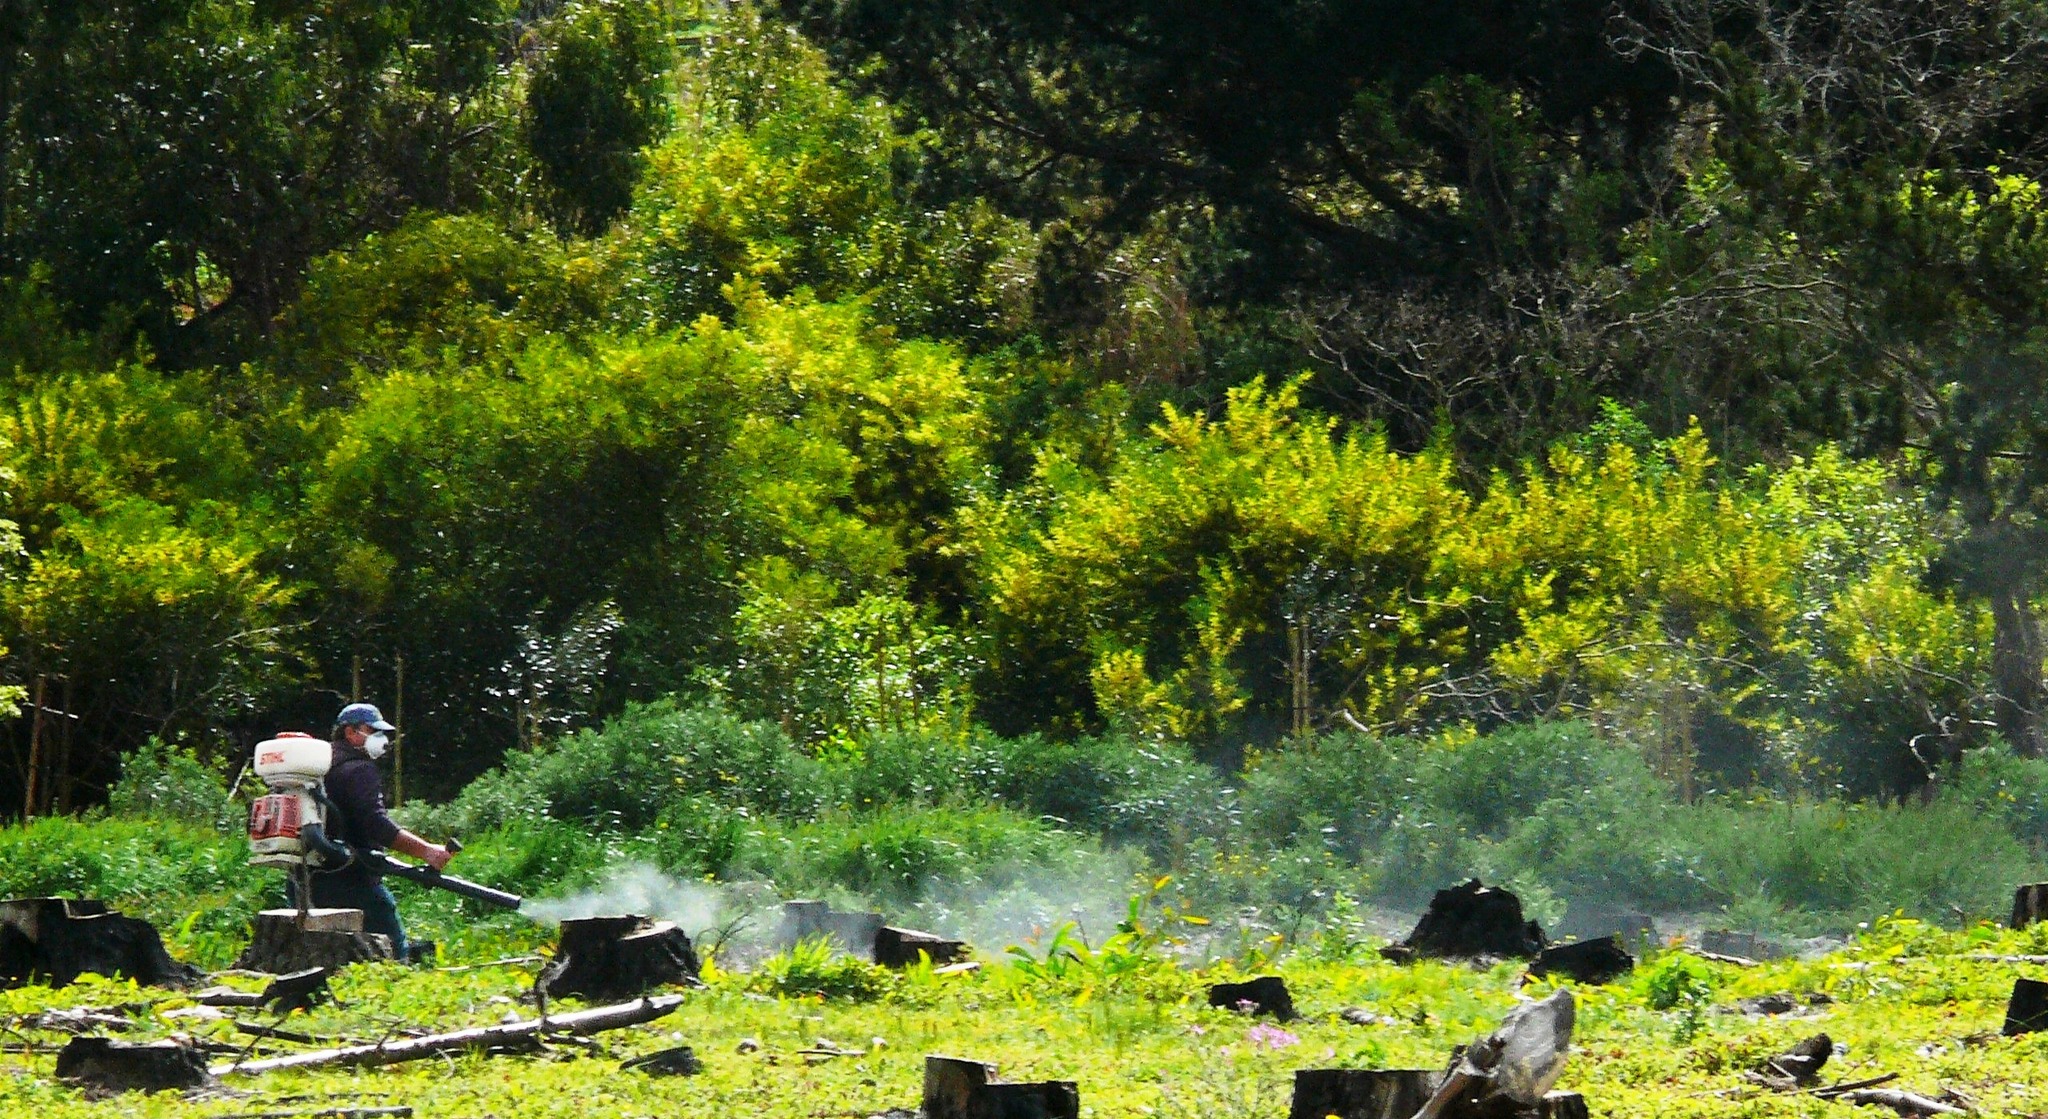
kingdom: Plantae
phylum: Tracheophyta
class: Magnoliopsida
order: Fabales
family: Fabaceae
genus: Acacia
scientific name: Acacia longifolia
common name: Sydney golden wattle
